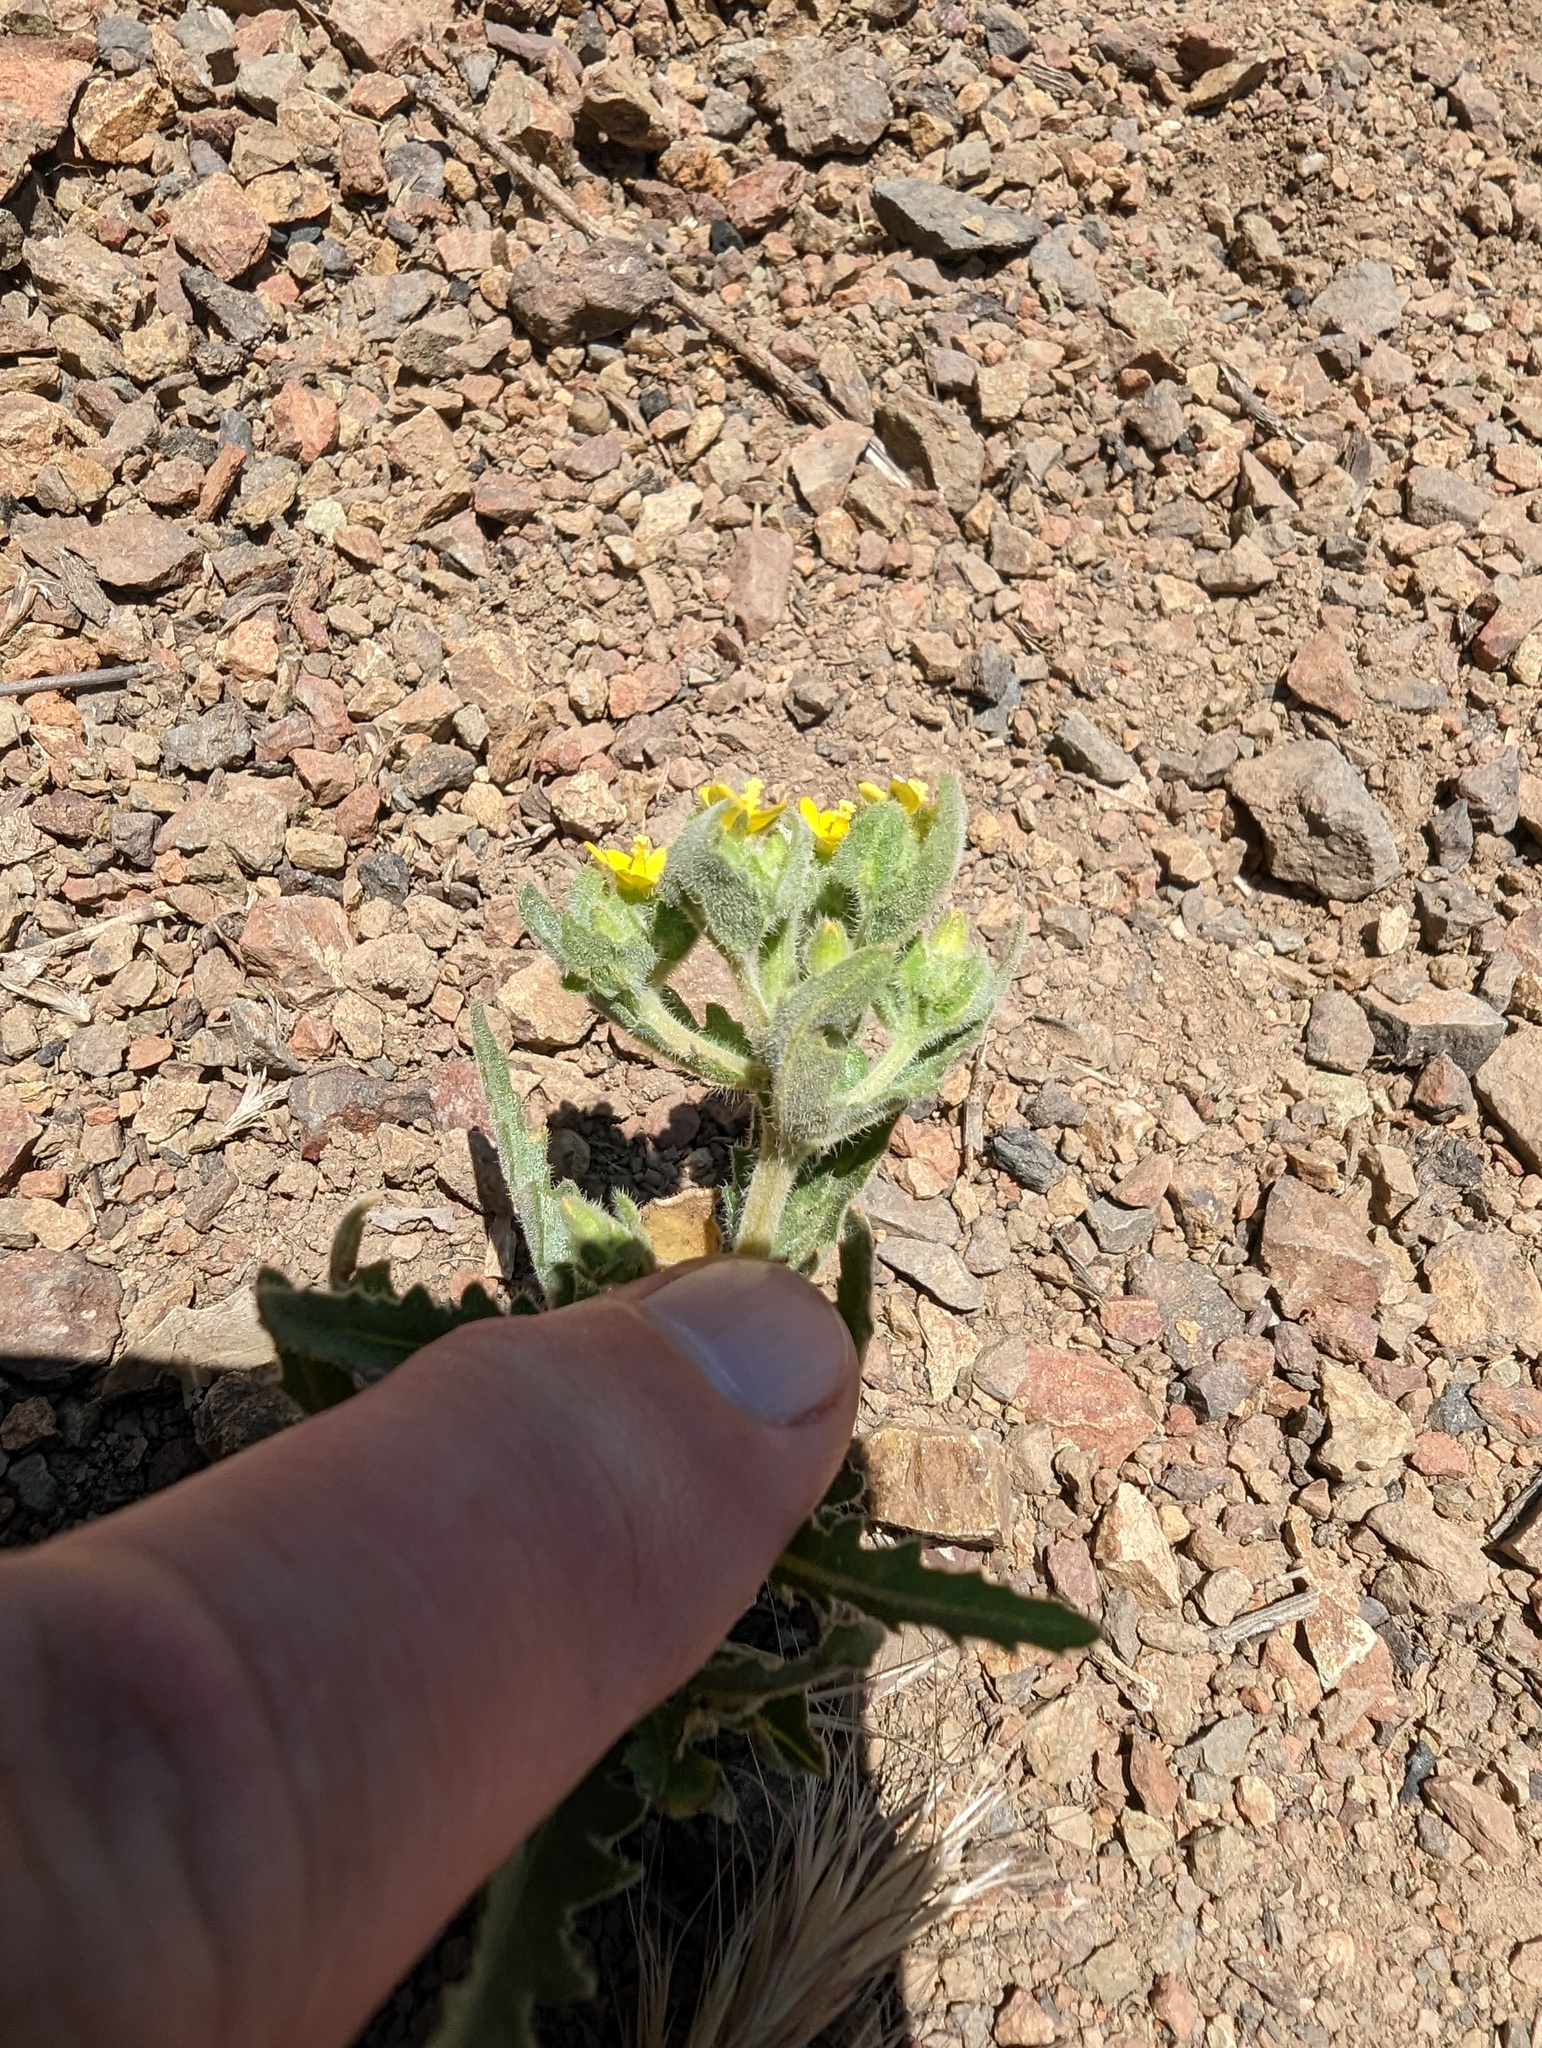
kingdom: Plantae
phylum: Tracheophyta
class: Magnoliopsida
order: Cornales
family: Loasaceae
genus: Mentzelia
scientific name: Mentzelia micrantha
